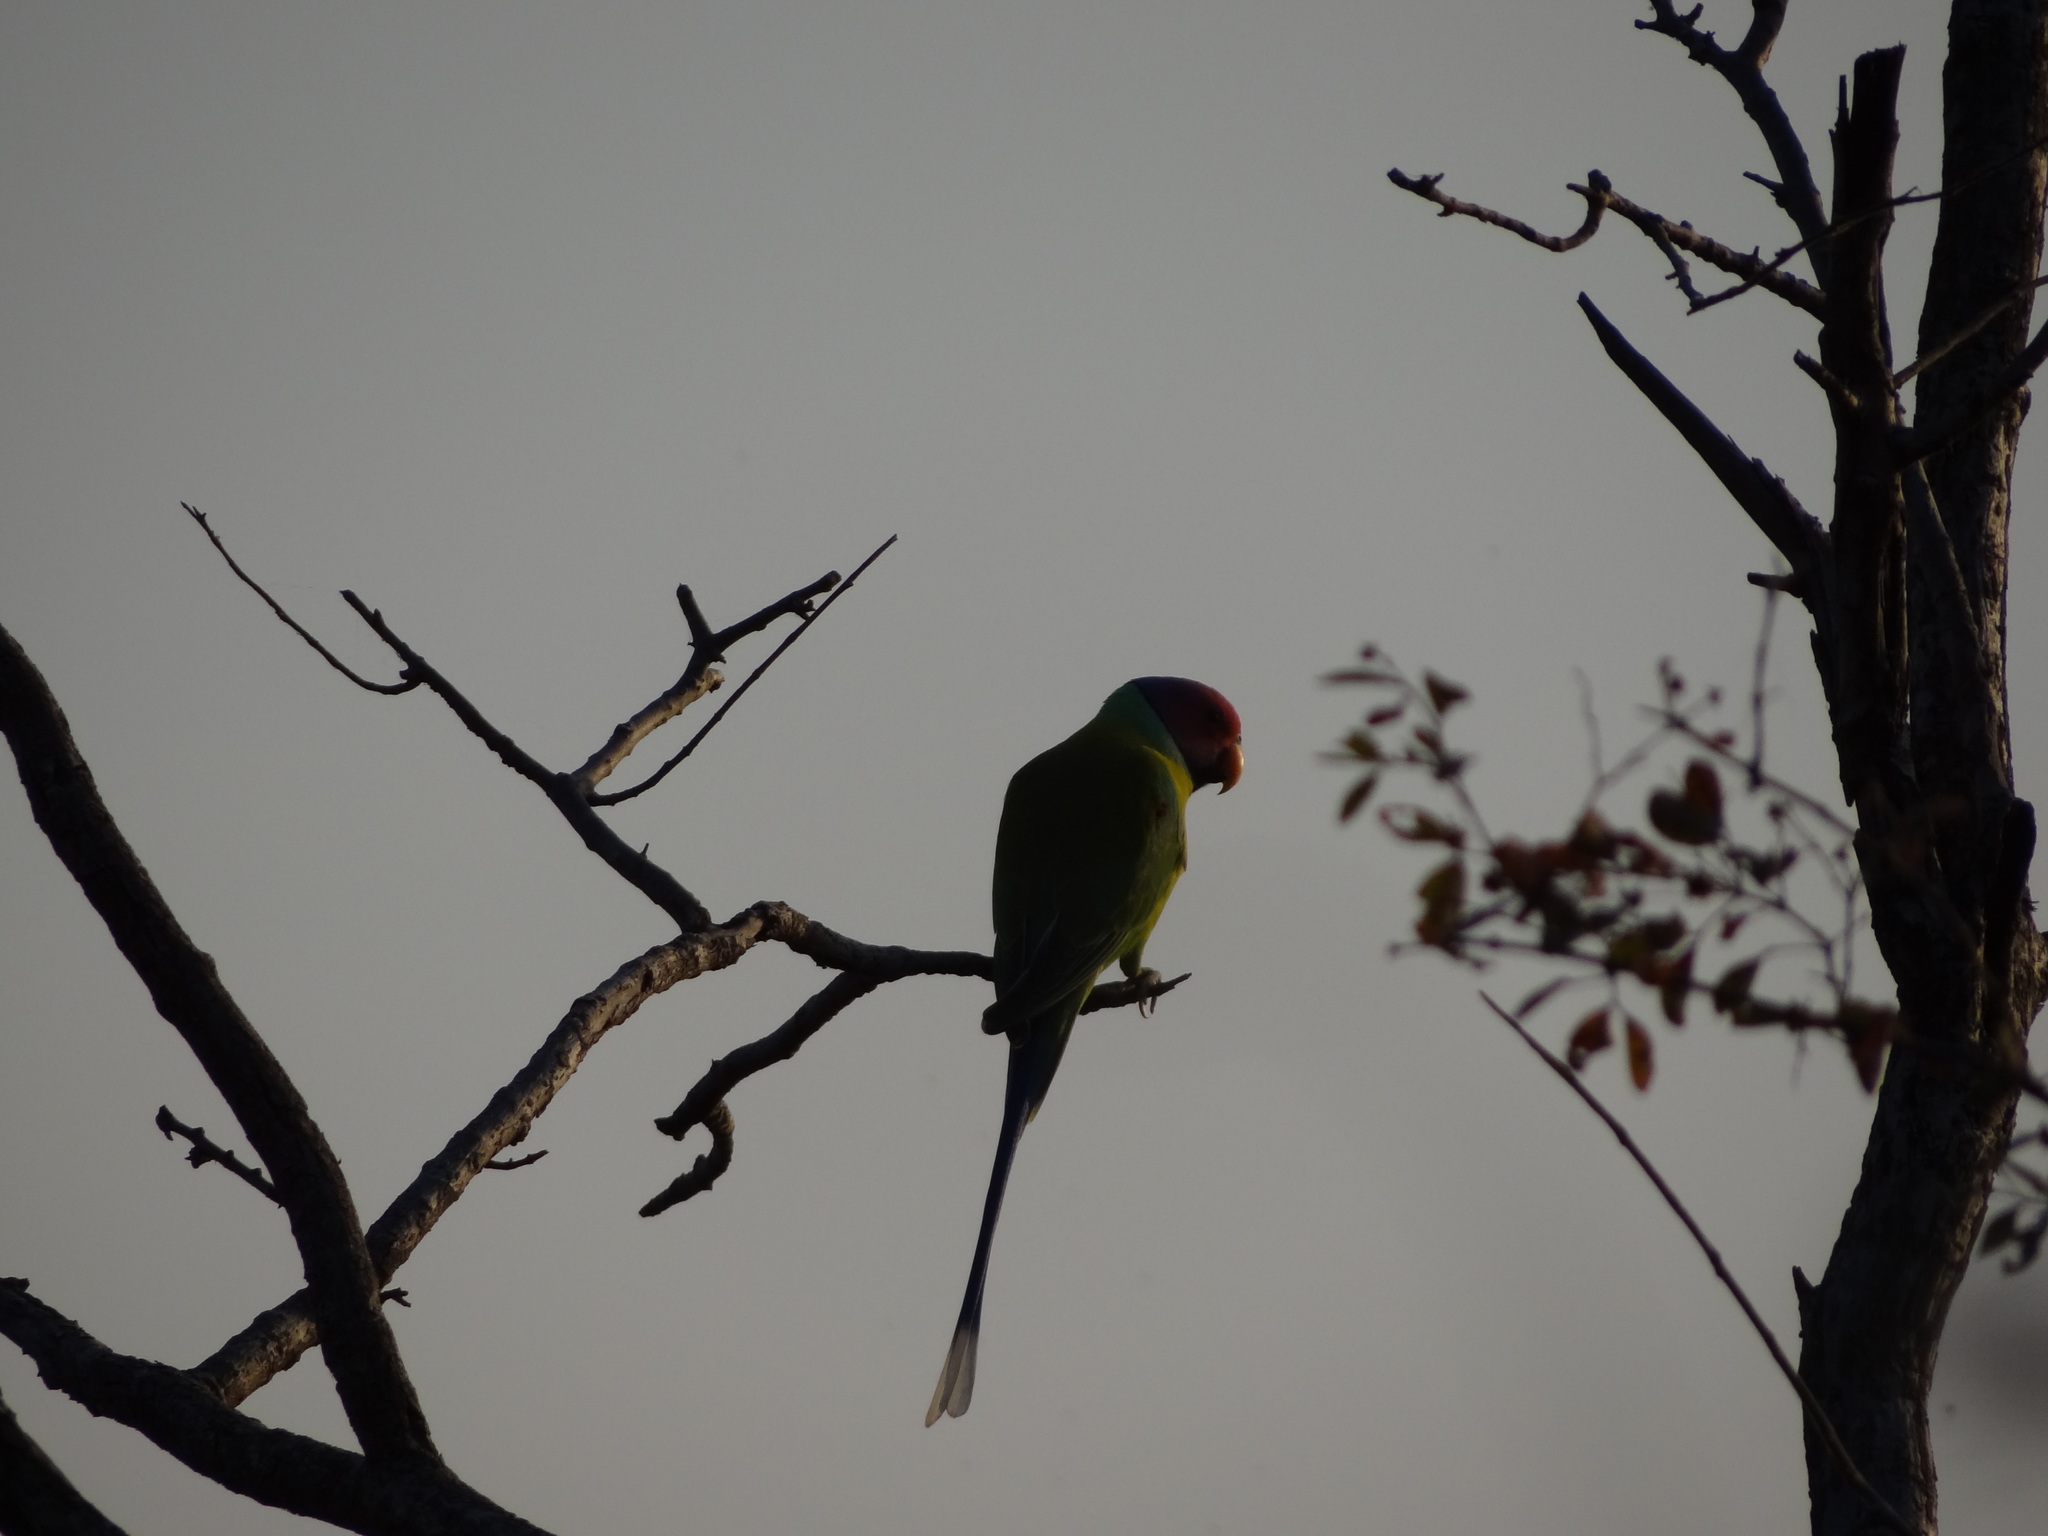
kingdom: Animalia
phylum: Chordata
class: Aves
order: Psittaciformes
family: Psittacidae
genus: Psittacula
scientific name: Psittacula cyanocephala
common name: Plum-headed parakeet
